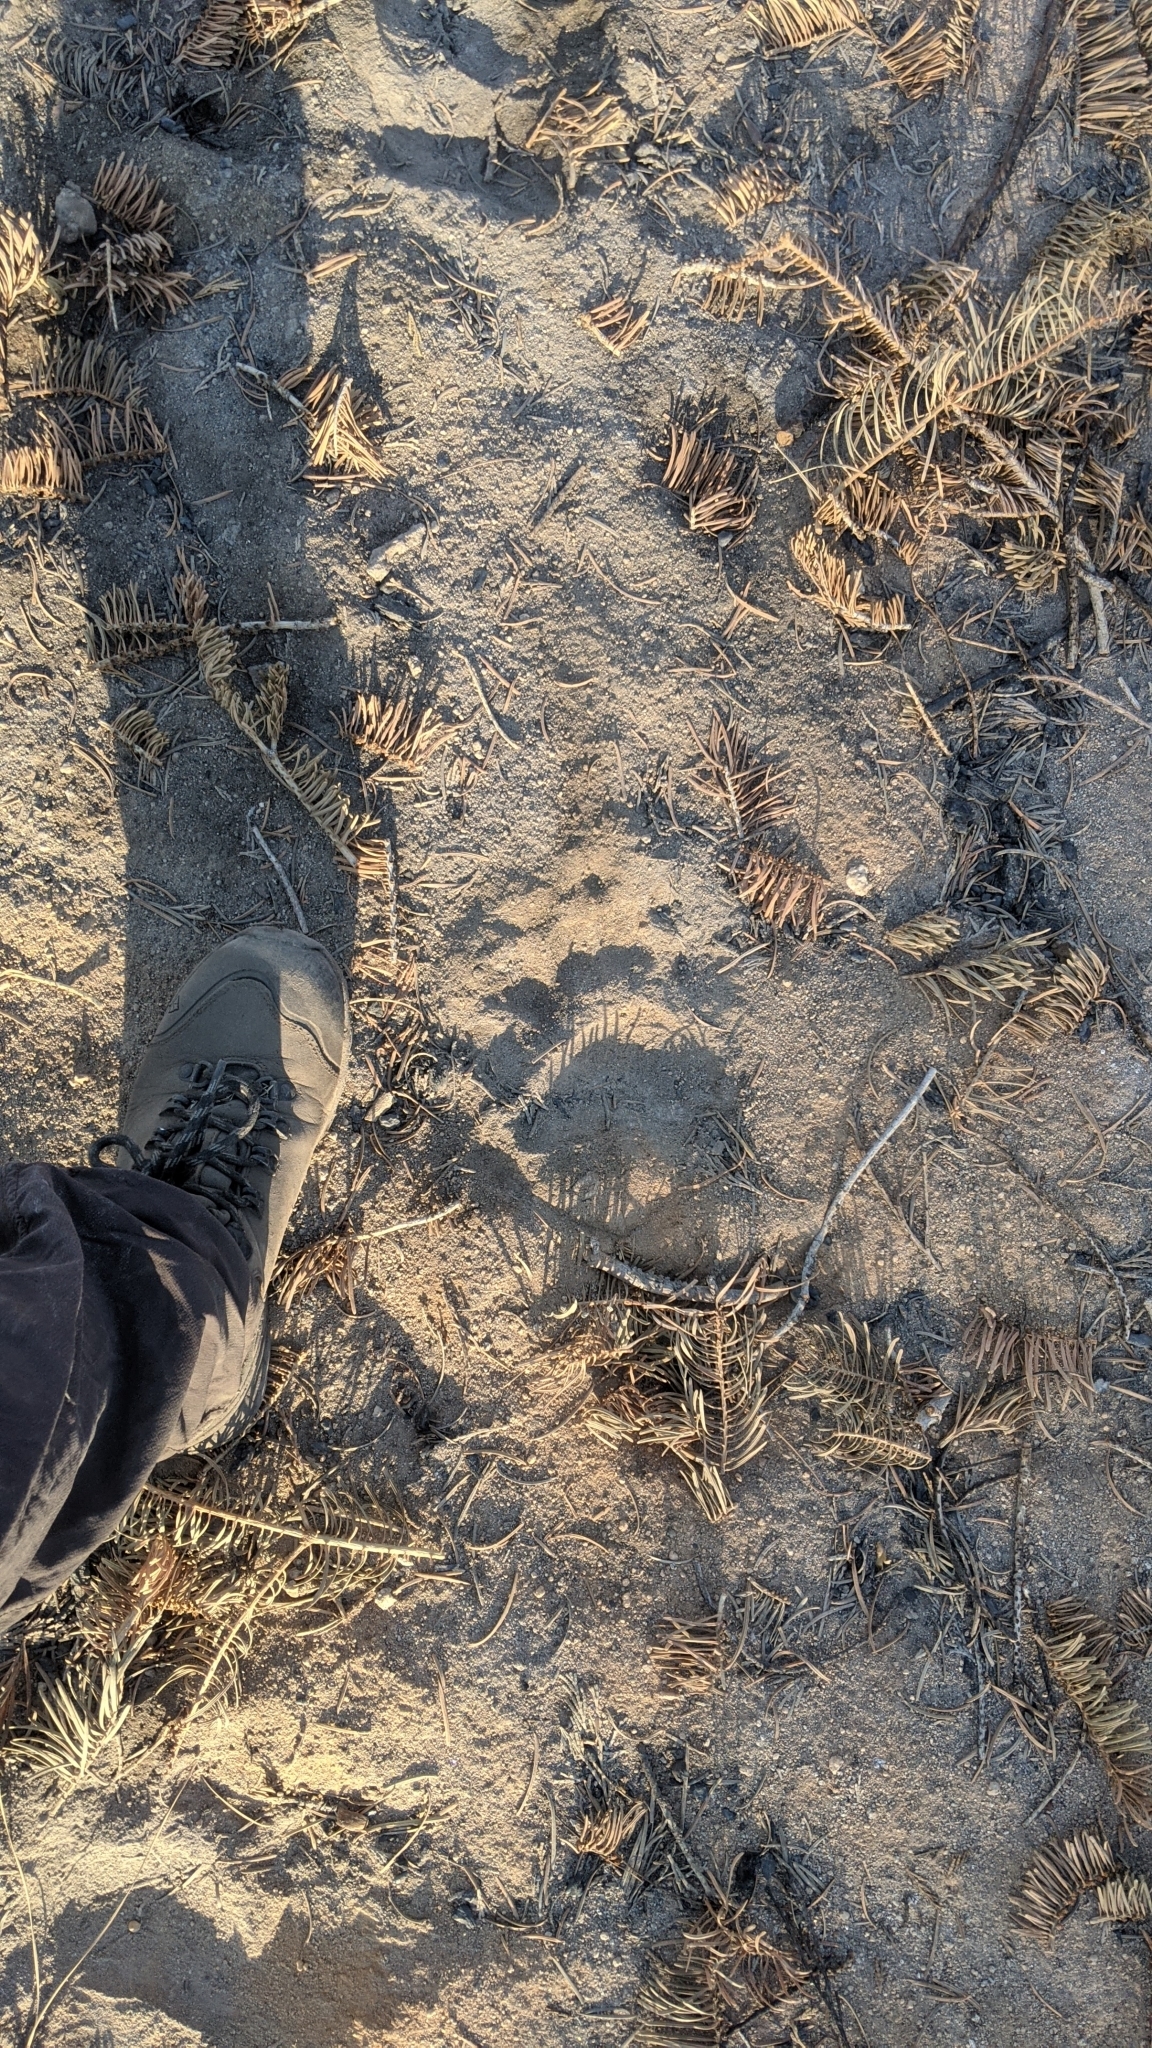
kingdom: Animalia
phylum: Chordata
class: Mammalia
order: Carnivora
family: Ursidae
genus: Ursus
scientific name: Ursus americanus
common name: American black bear
